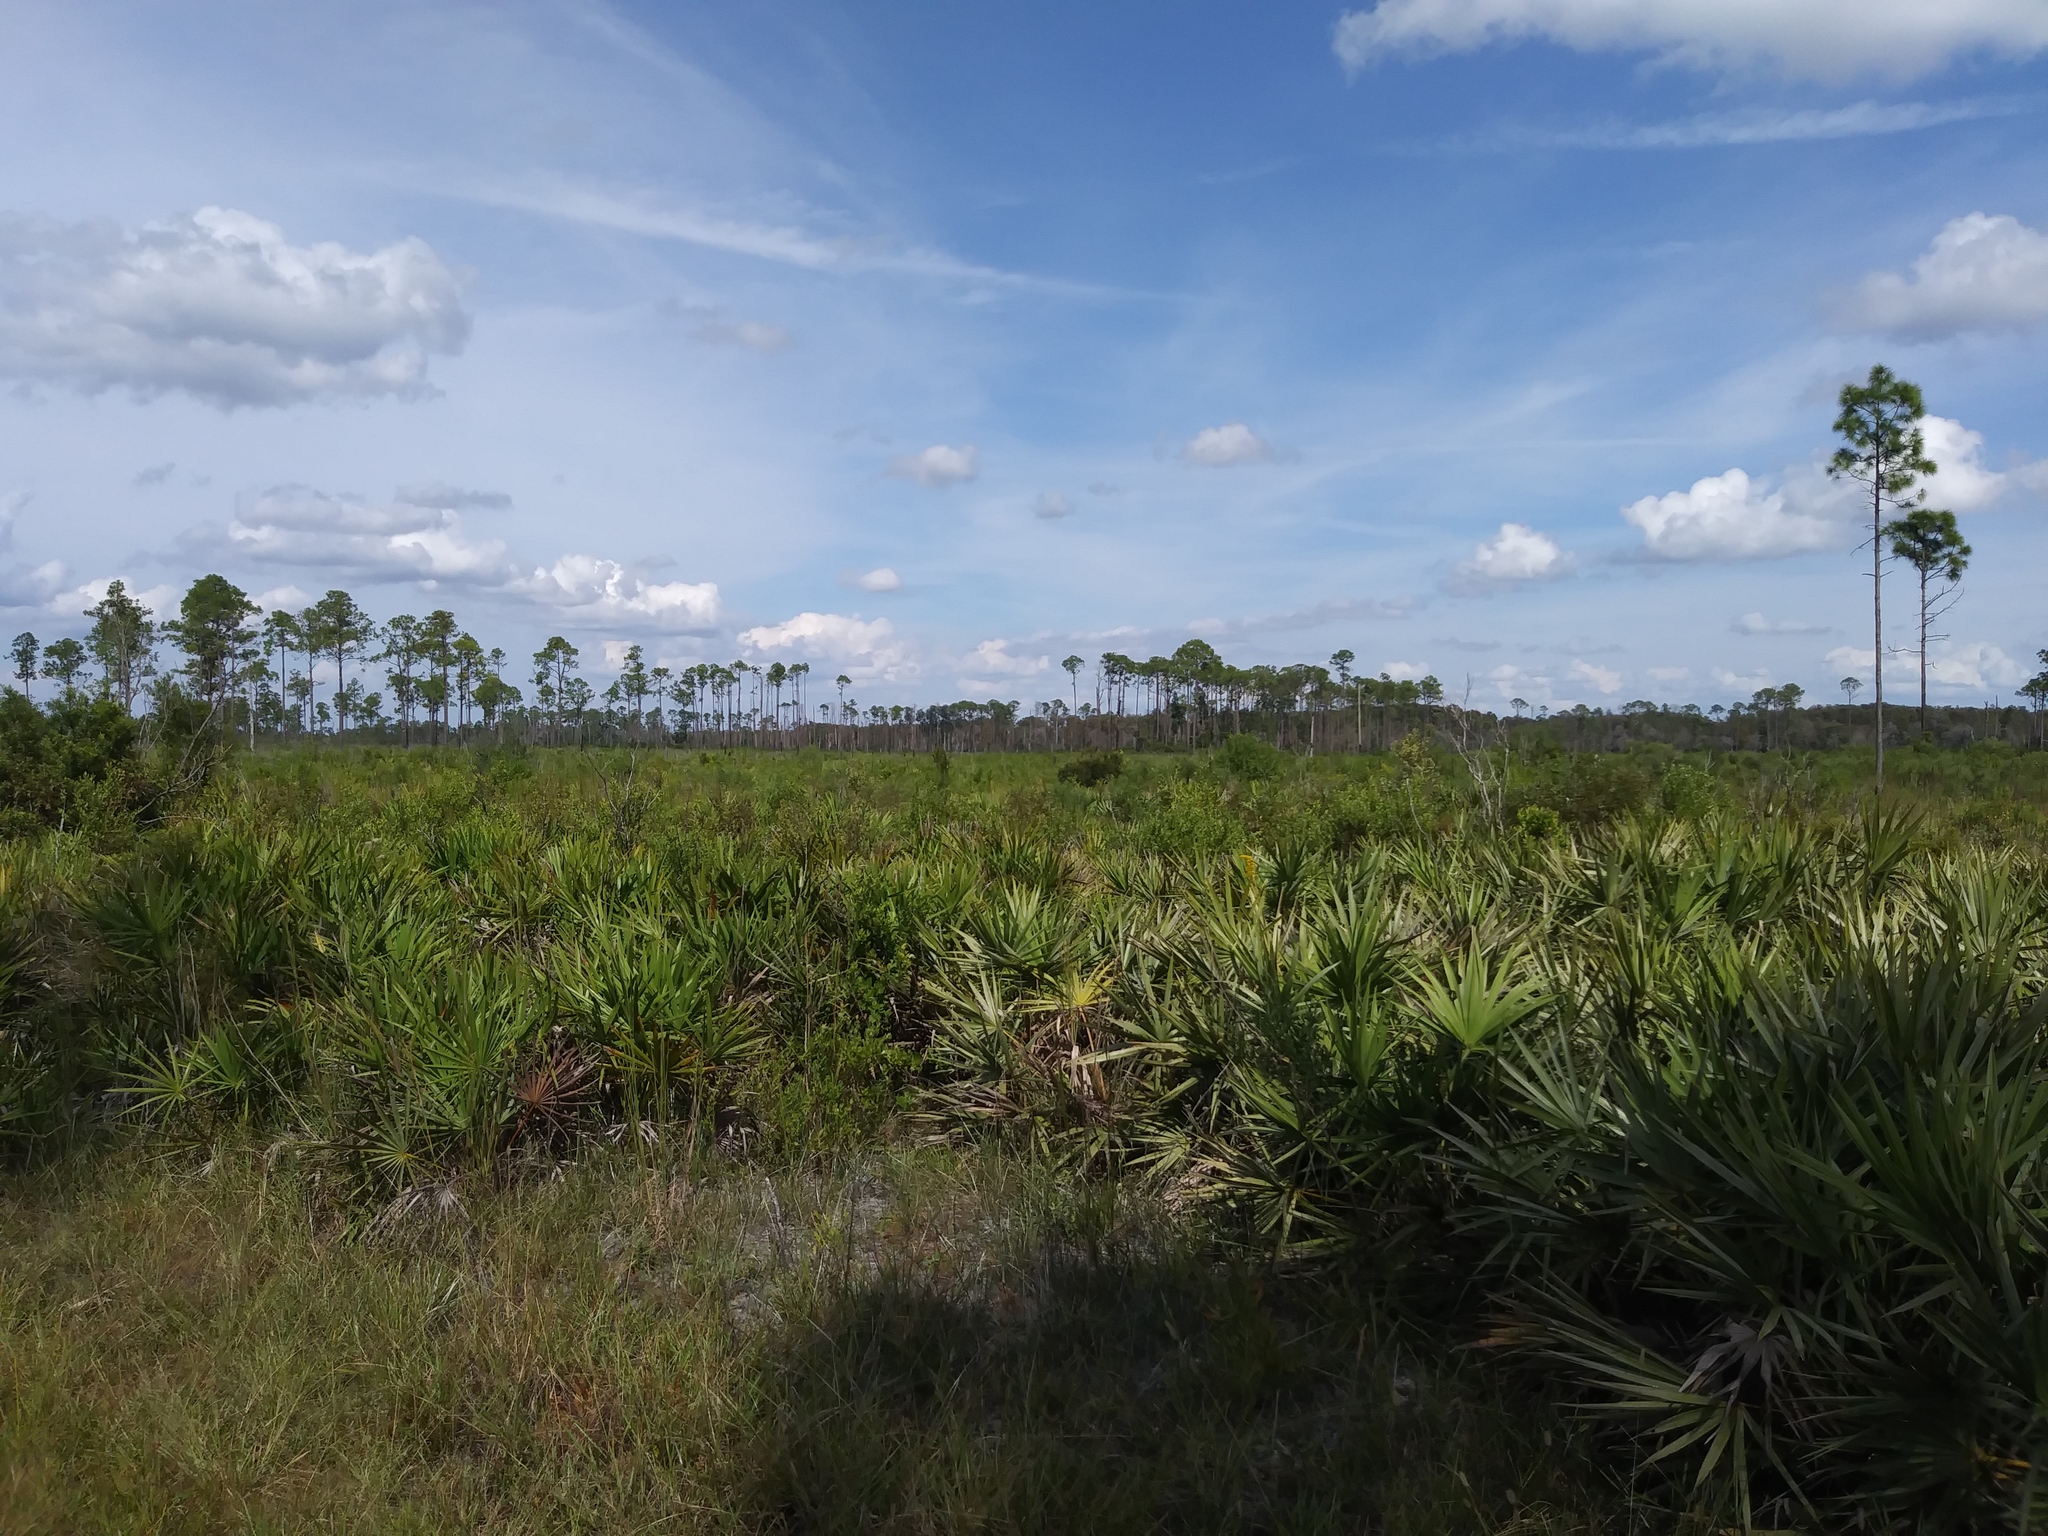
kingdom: Plantae
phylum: Tracheophyta
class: Liliopsida
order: Arecales
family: Arecaceae
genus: Serenoa
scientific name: Serenoa repens
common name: Saw-palmetto
